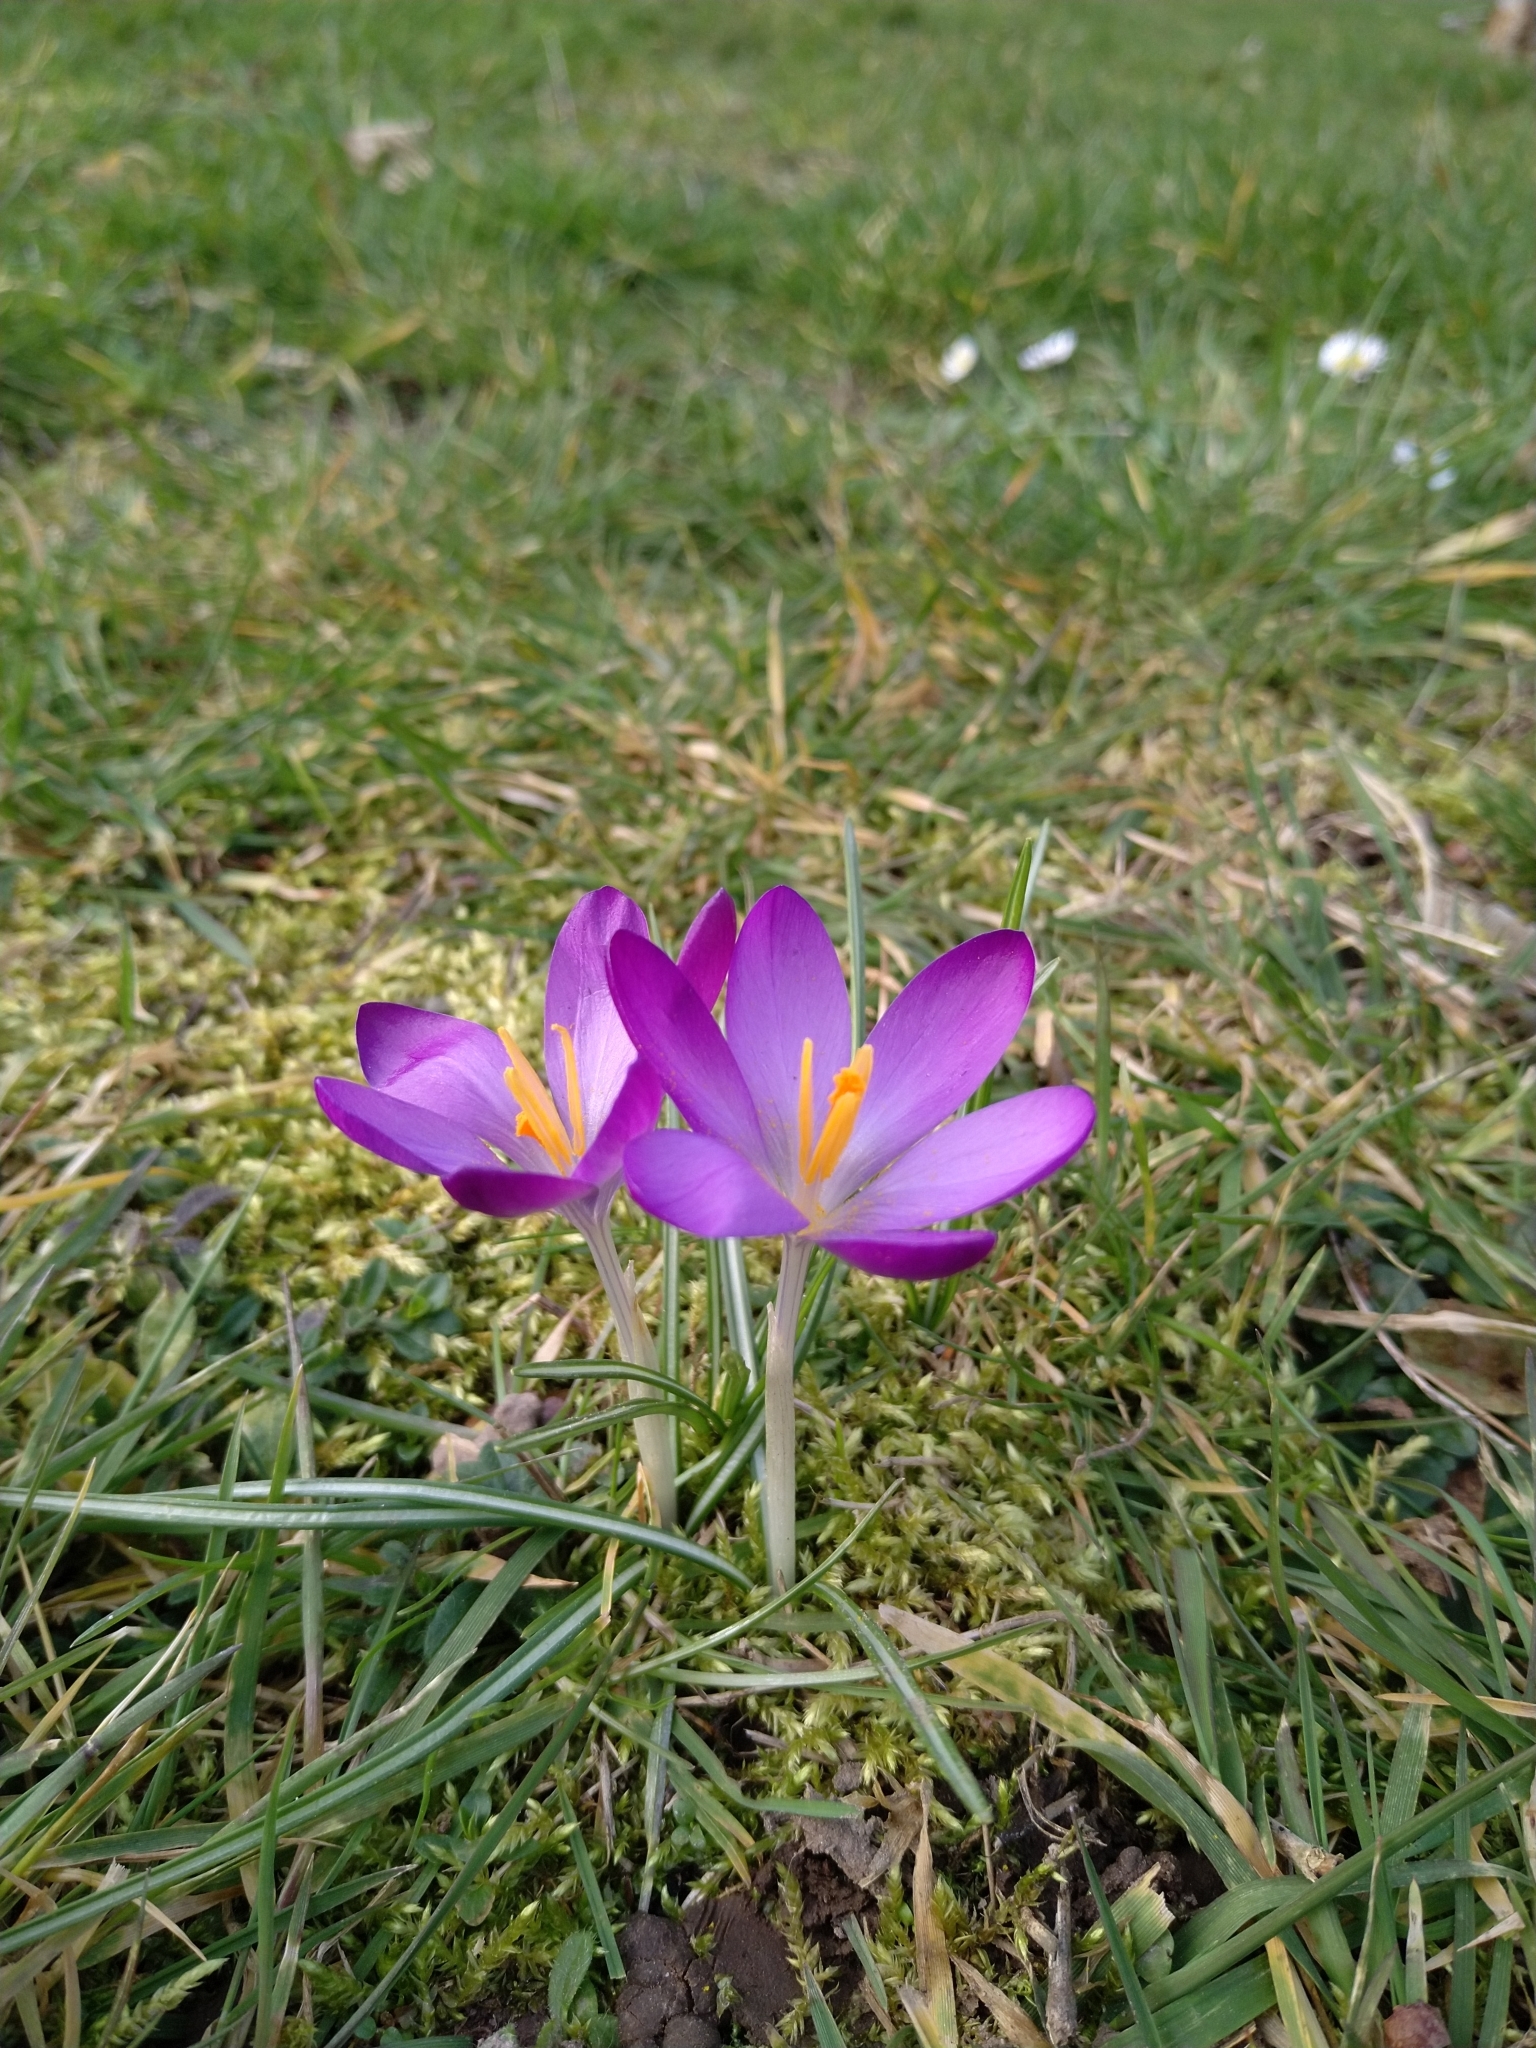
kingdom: Plantae
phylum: Tracheophyta
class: Liliopsida
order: Asparagales
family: Iridaceae
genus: Crocus
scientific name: Crocus tommasinianus
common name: Early crocus
